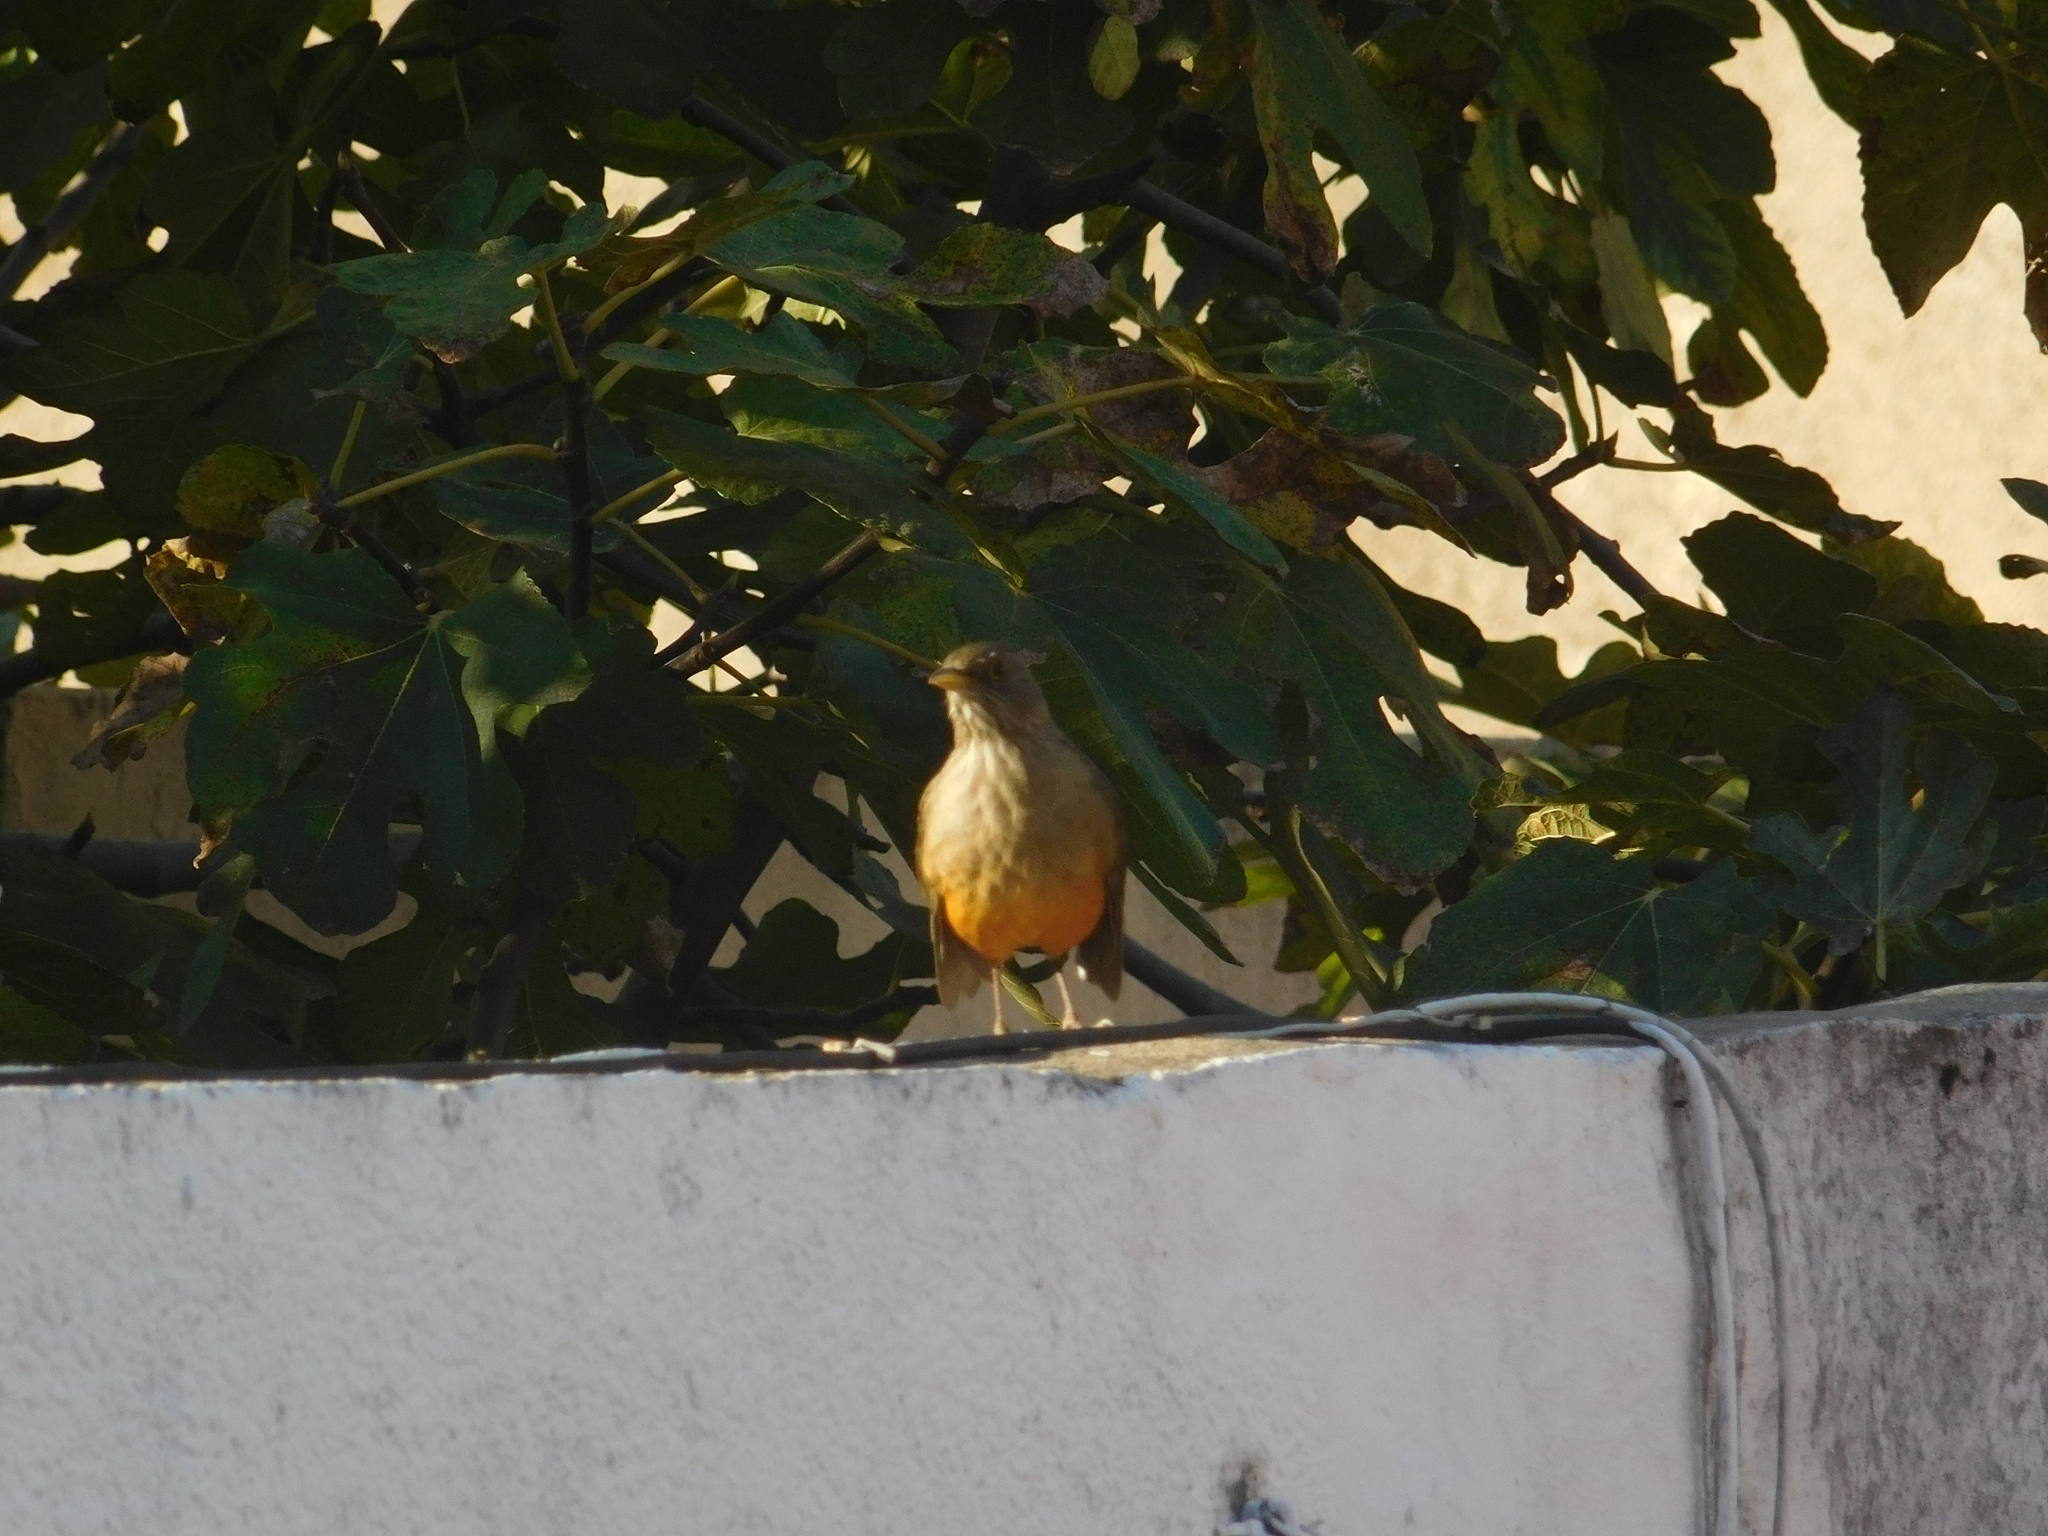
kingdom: Animalia
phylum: Chordata
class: Aves
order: Passeriformes
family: Turdidae
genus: Turdus
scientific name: Turdus rufiventris
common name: Rufous-bellied thrush
